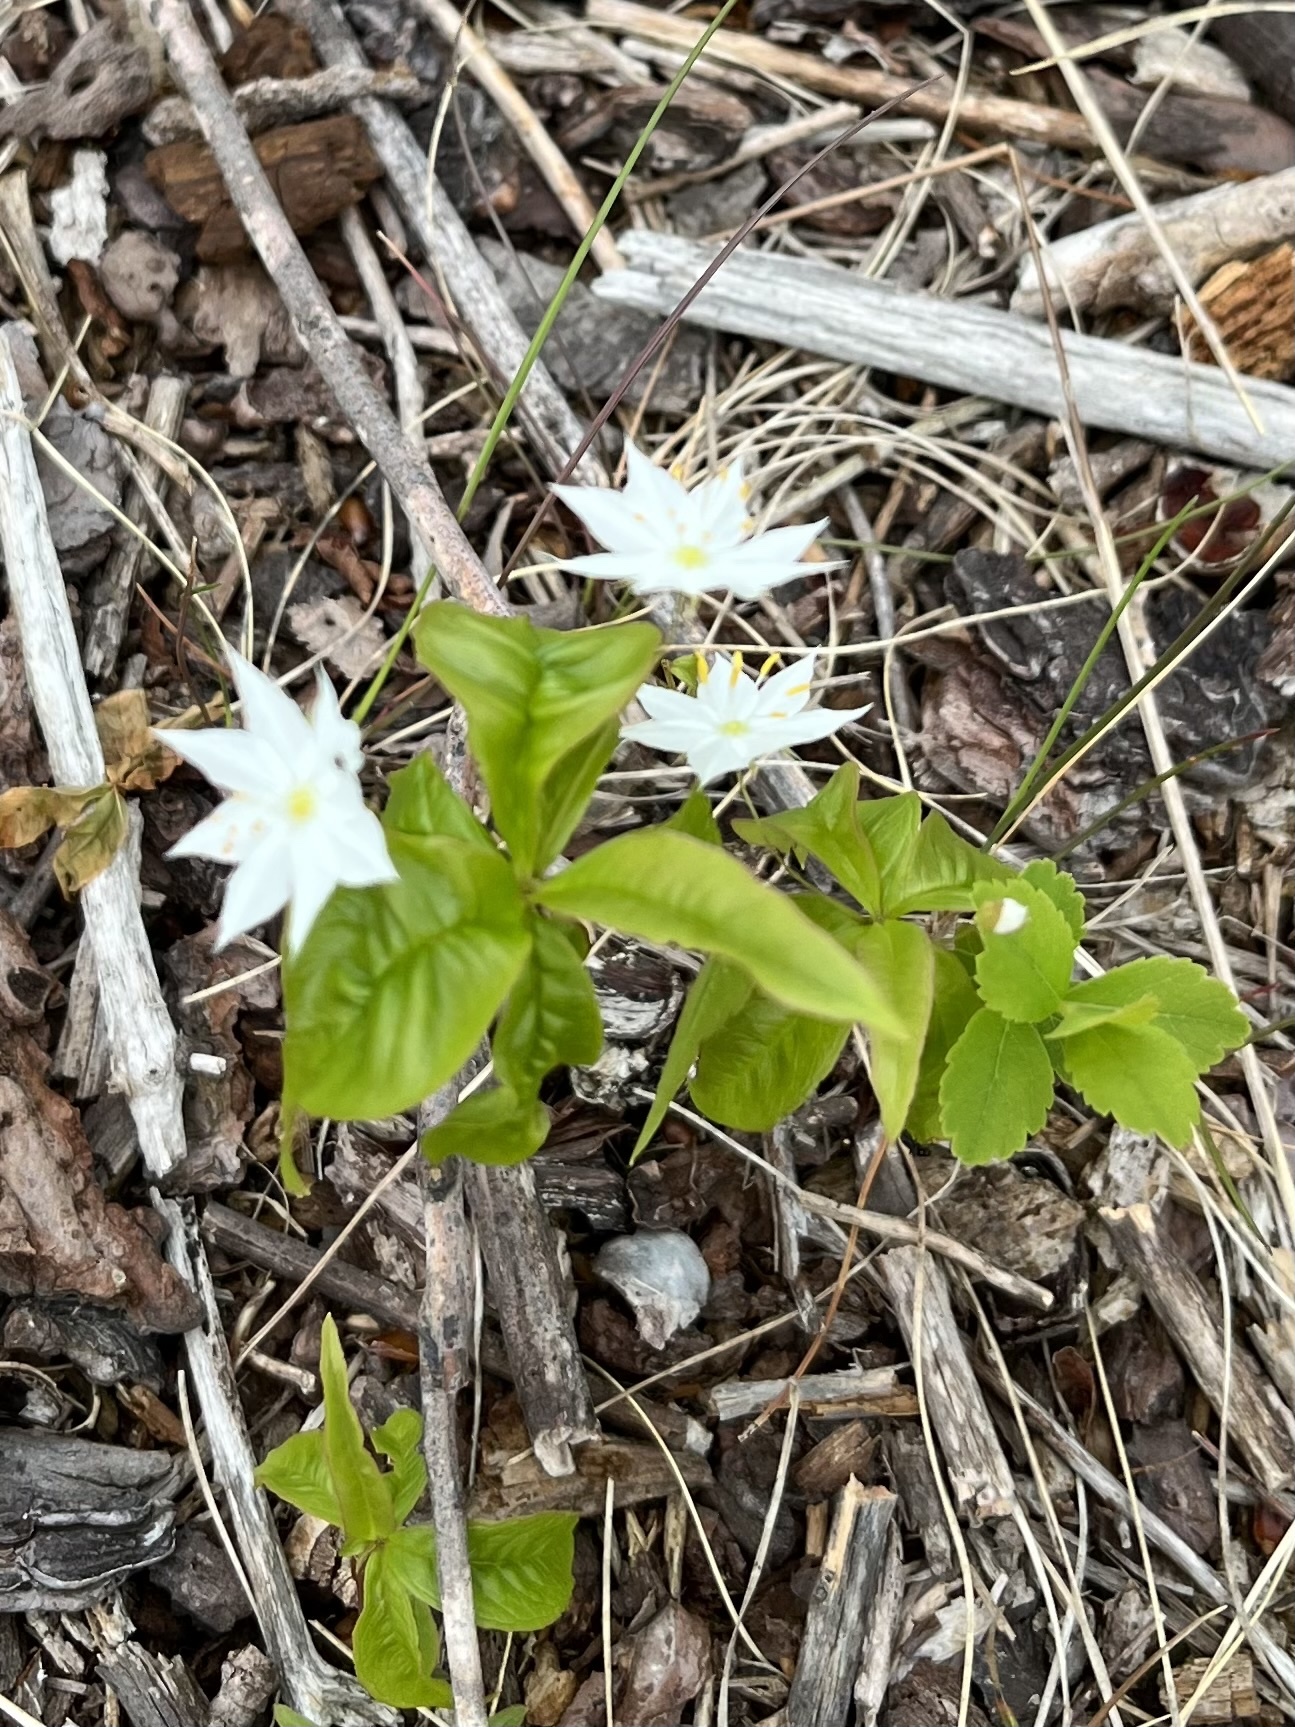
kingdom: Plantae
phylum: Tracheophyta
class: Magnoliopsida
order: Ericales
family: Primulaceae
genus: Lysimachia
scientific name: Lysimachia borealis
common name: American starflower
